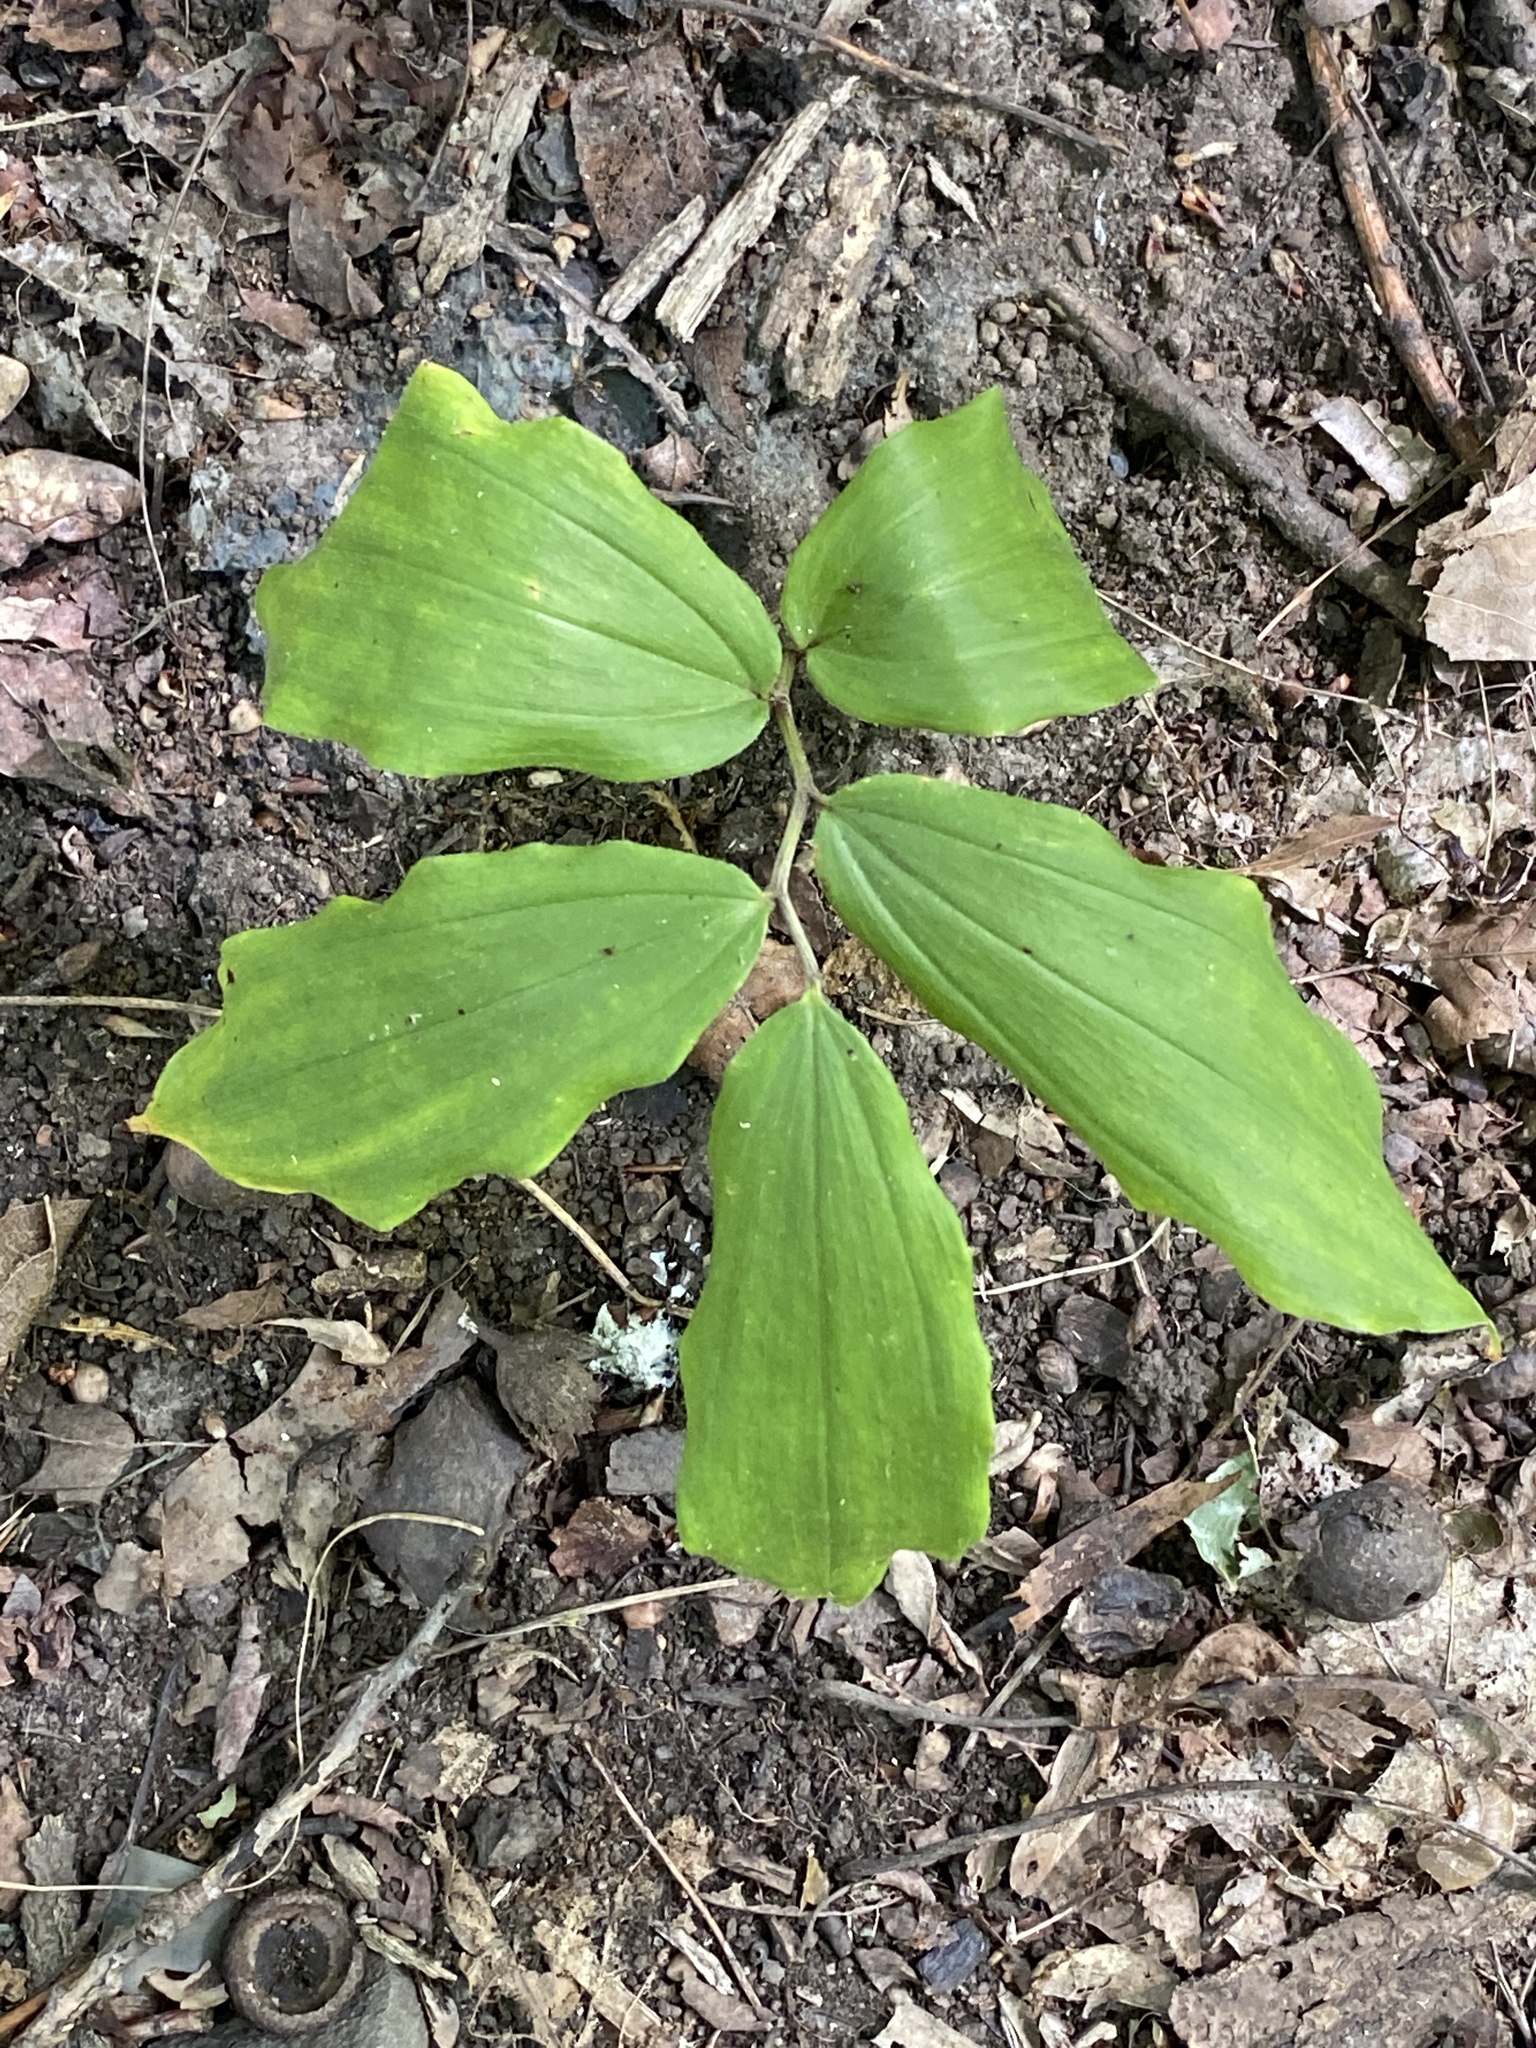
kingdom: Plantae
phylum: Tracheophyta
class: Liliopsida
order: Asparagales
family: Asparagaceae
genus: Maianthemum
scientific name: Maianthemum racemosum
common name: False spikenard
